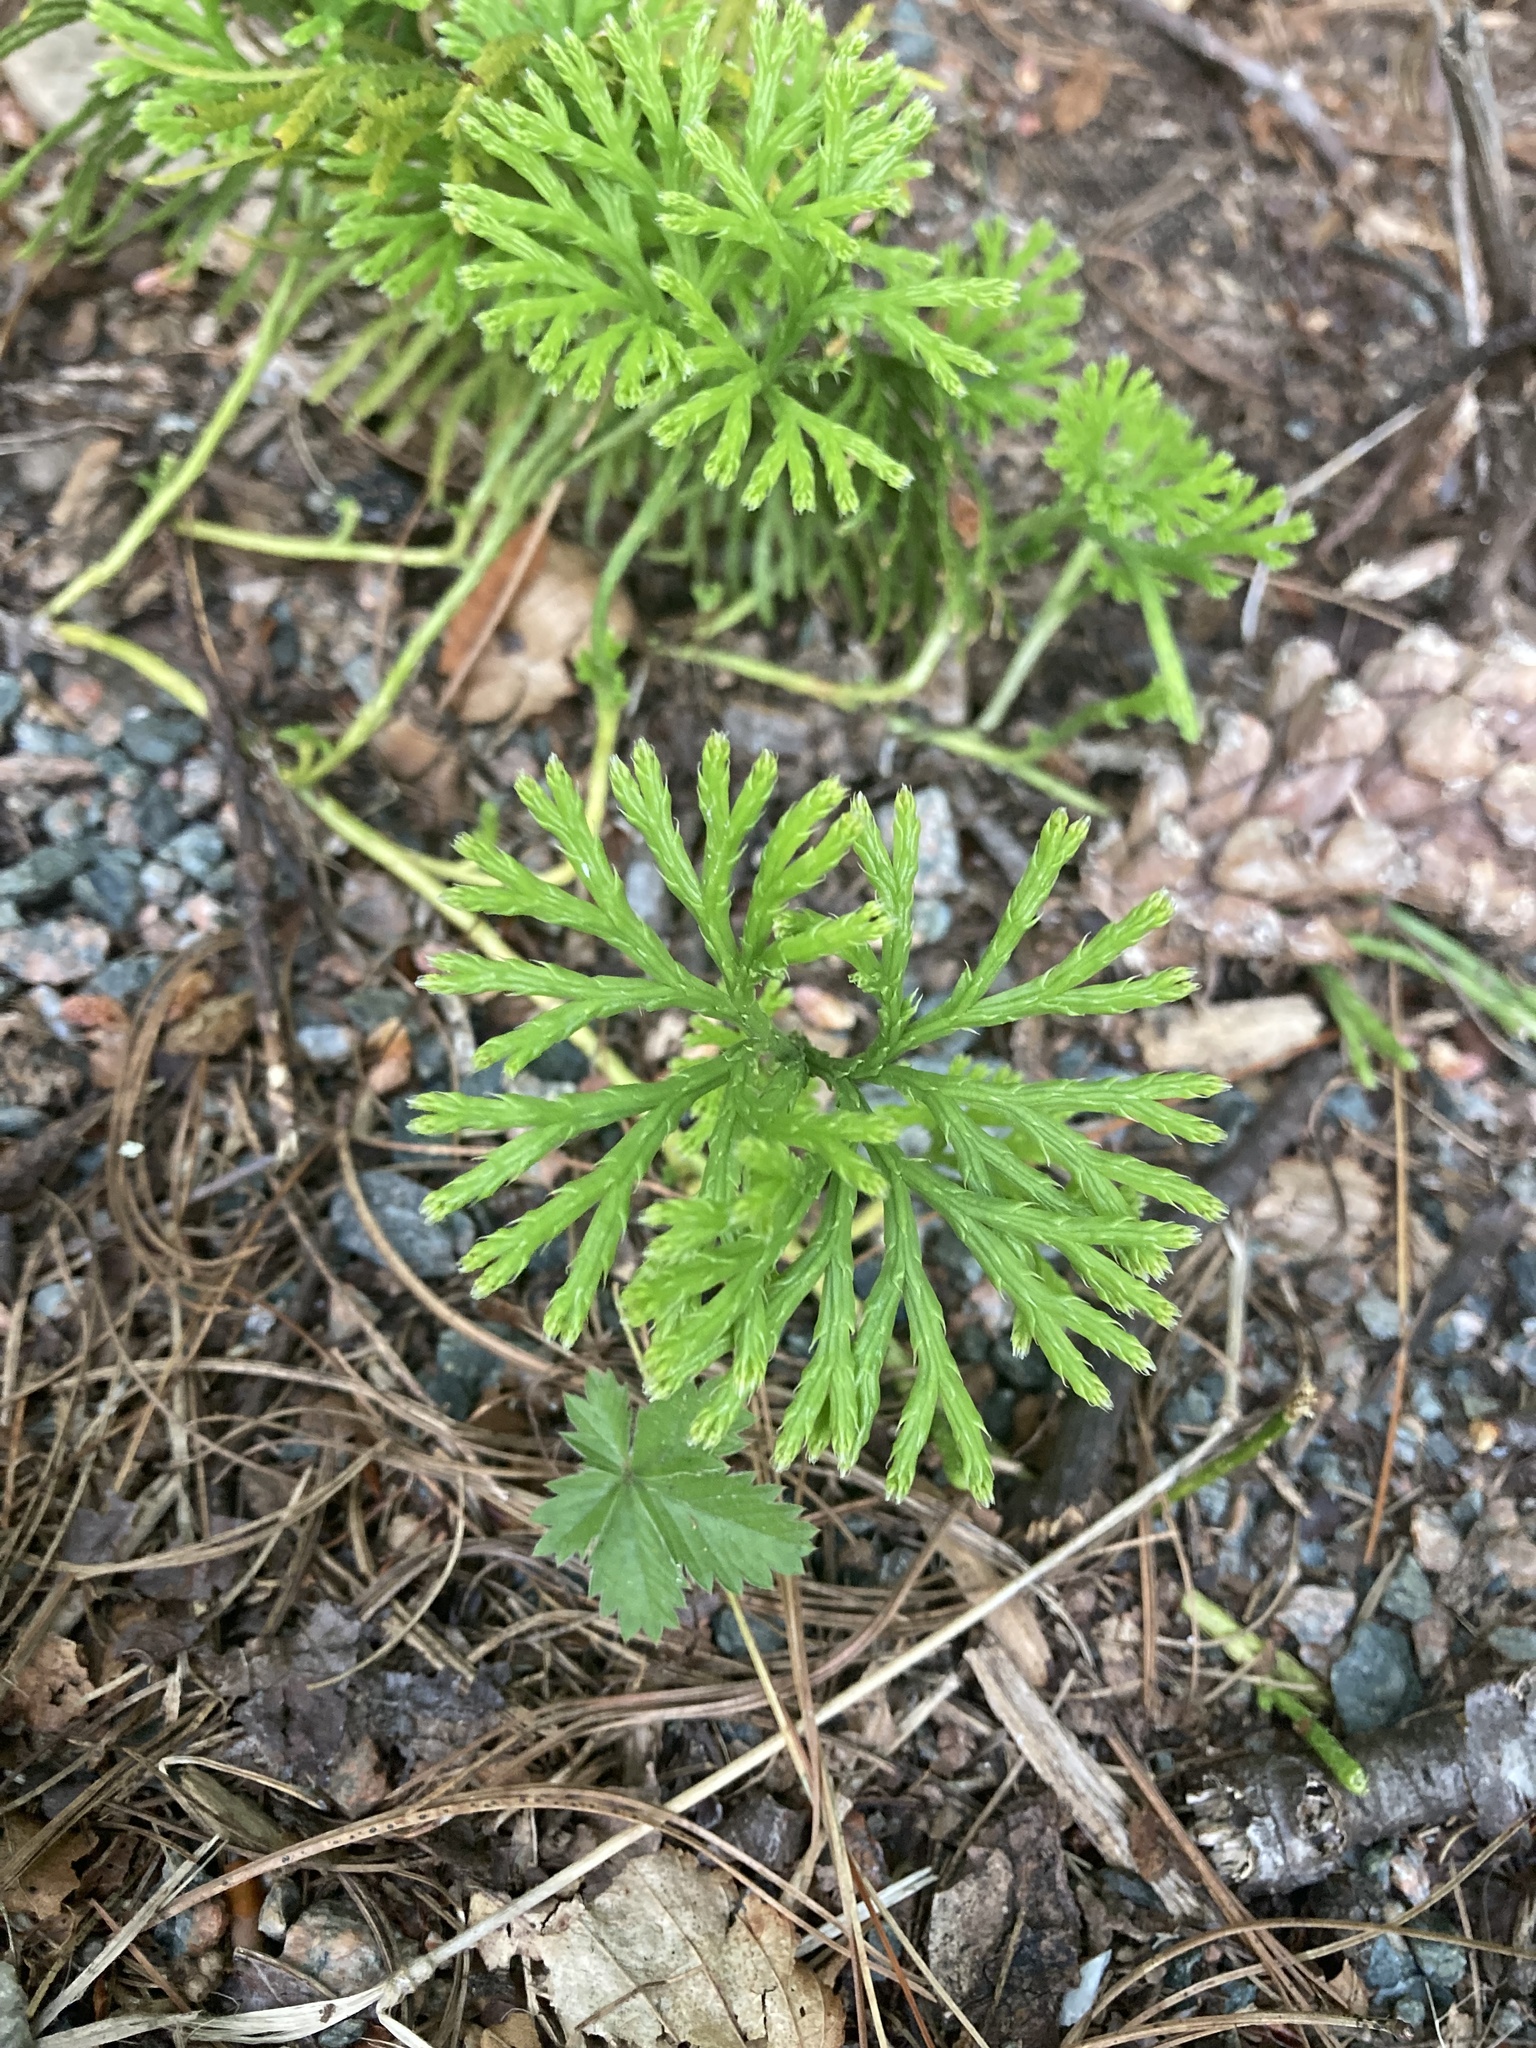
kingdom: Plantae
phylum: Tracheophyta
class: Lycopodiopsida
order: Lycopodiales
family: Lycopodiaceae
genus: Diphasiastrum
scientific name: Diphasiastrum digitatum
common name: Southern running-pine
